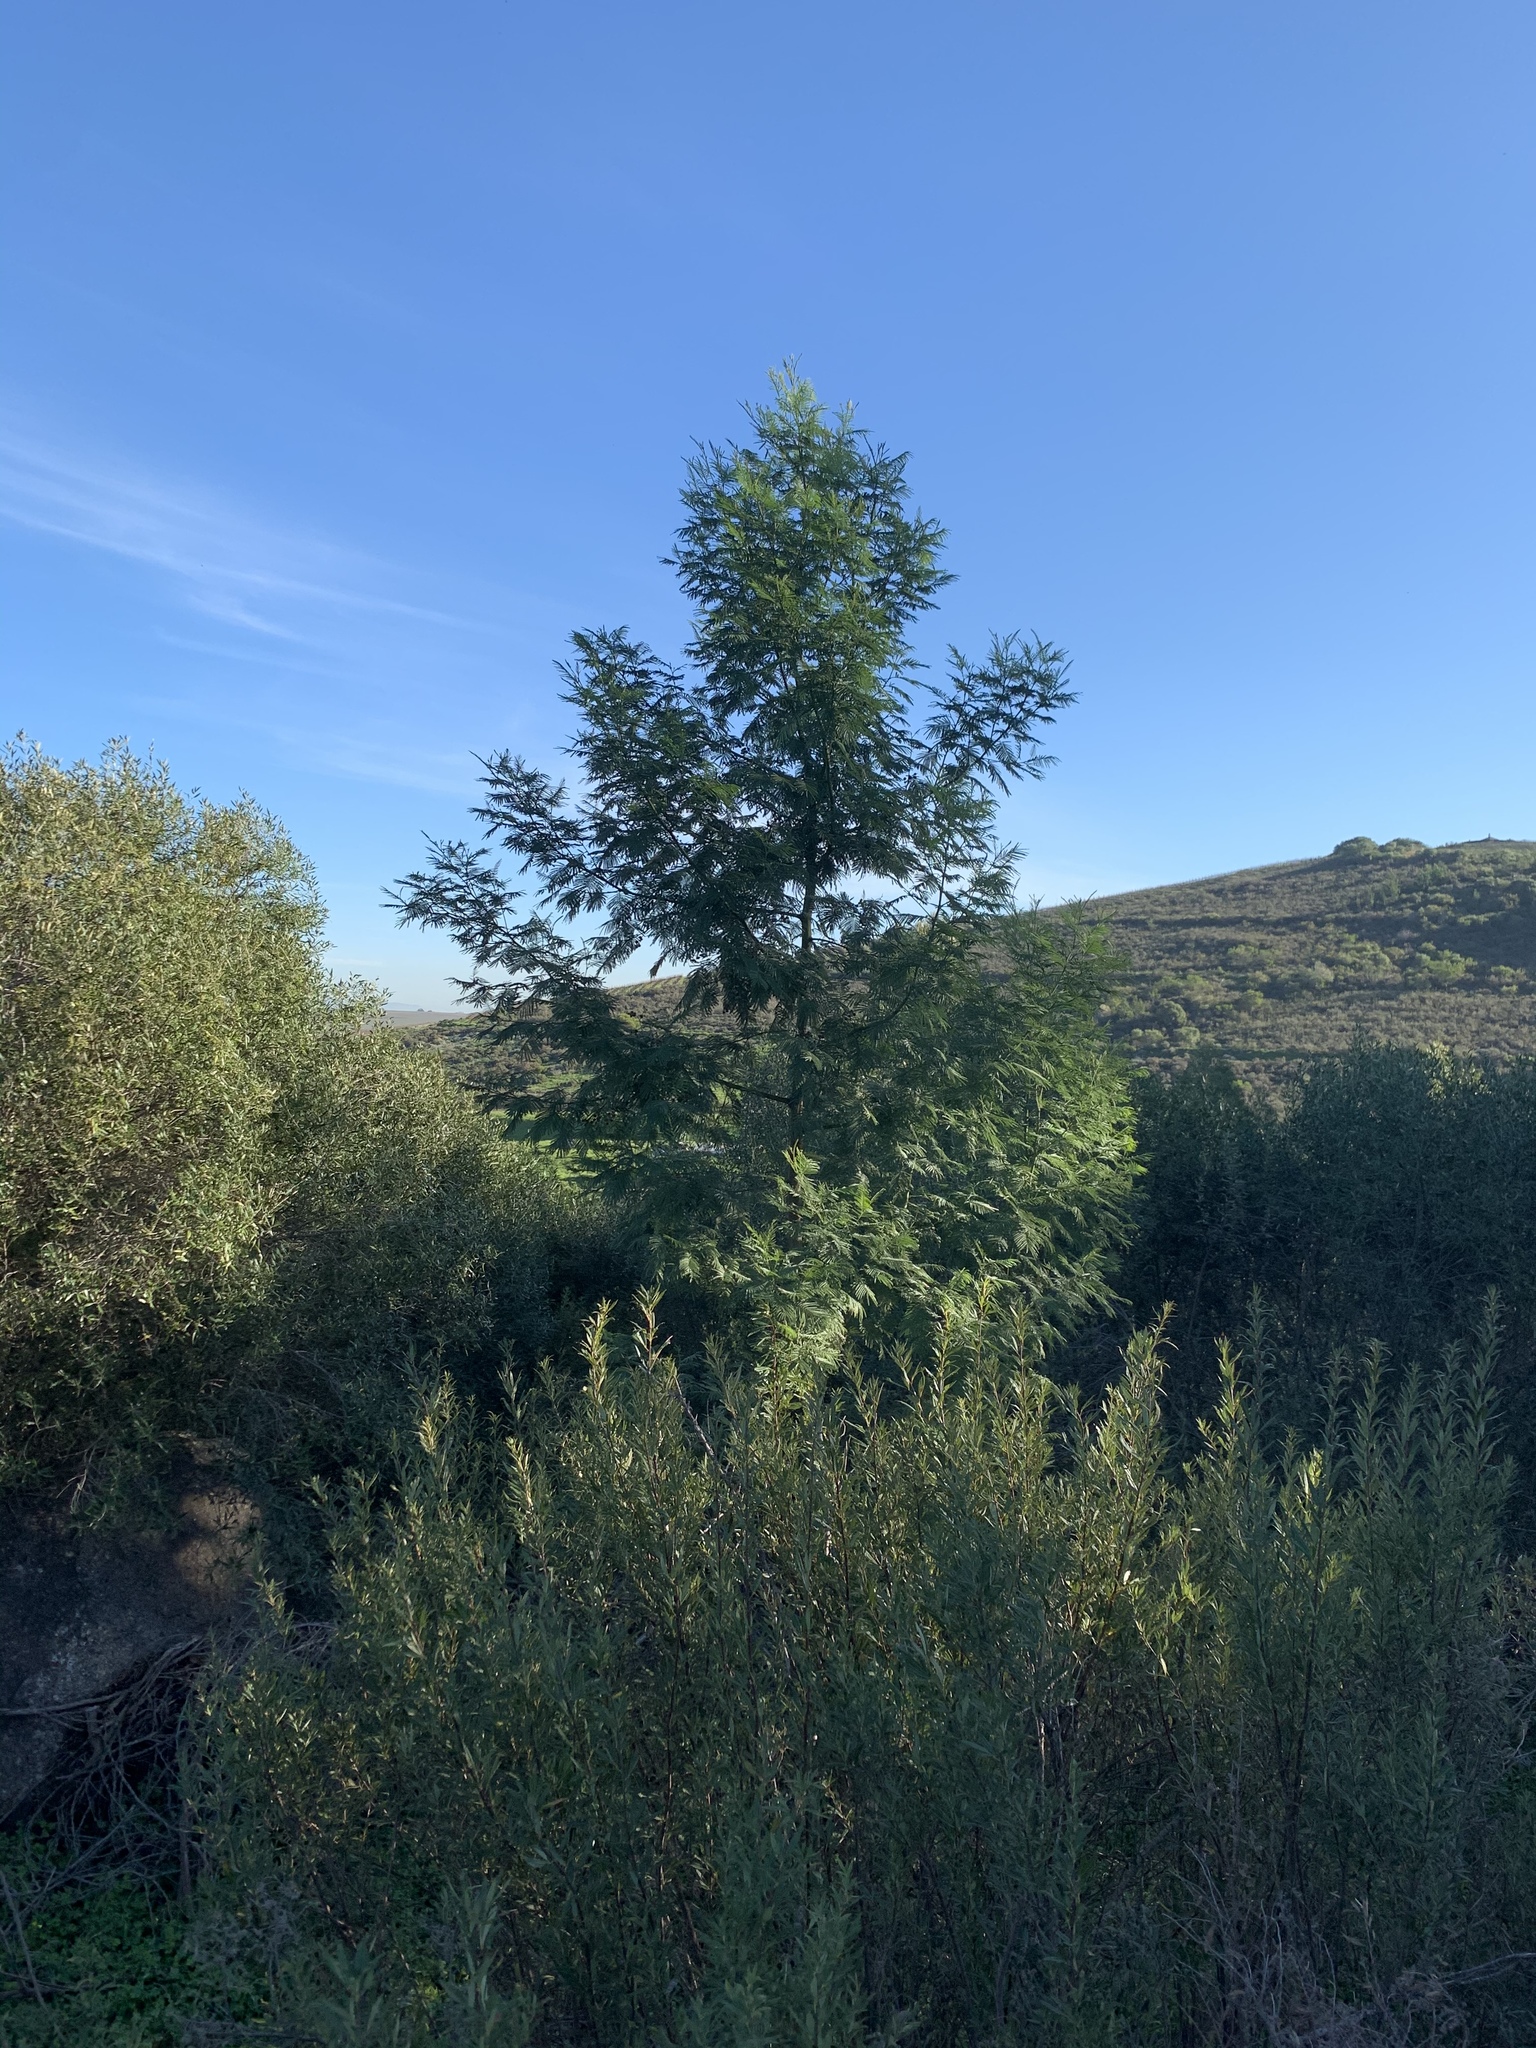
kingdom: Plantae
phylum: Tracheophyta
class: Magnoliopsida
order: Fabales
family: Fabaceae
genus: Acacia
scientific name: Acacia mearnsii
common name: Black wattle
